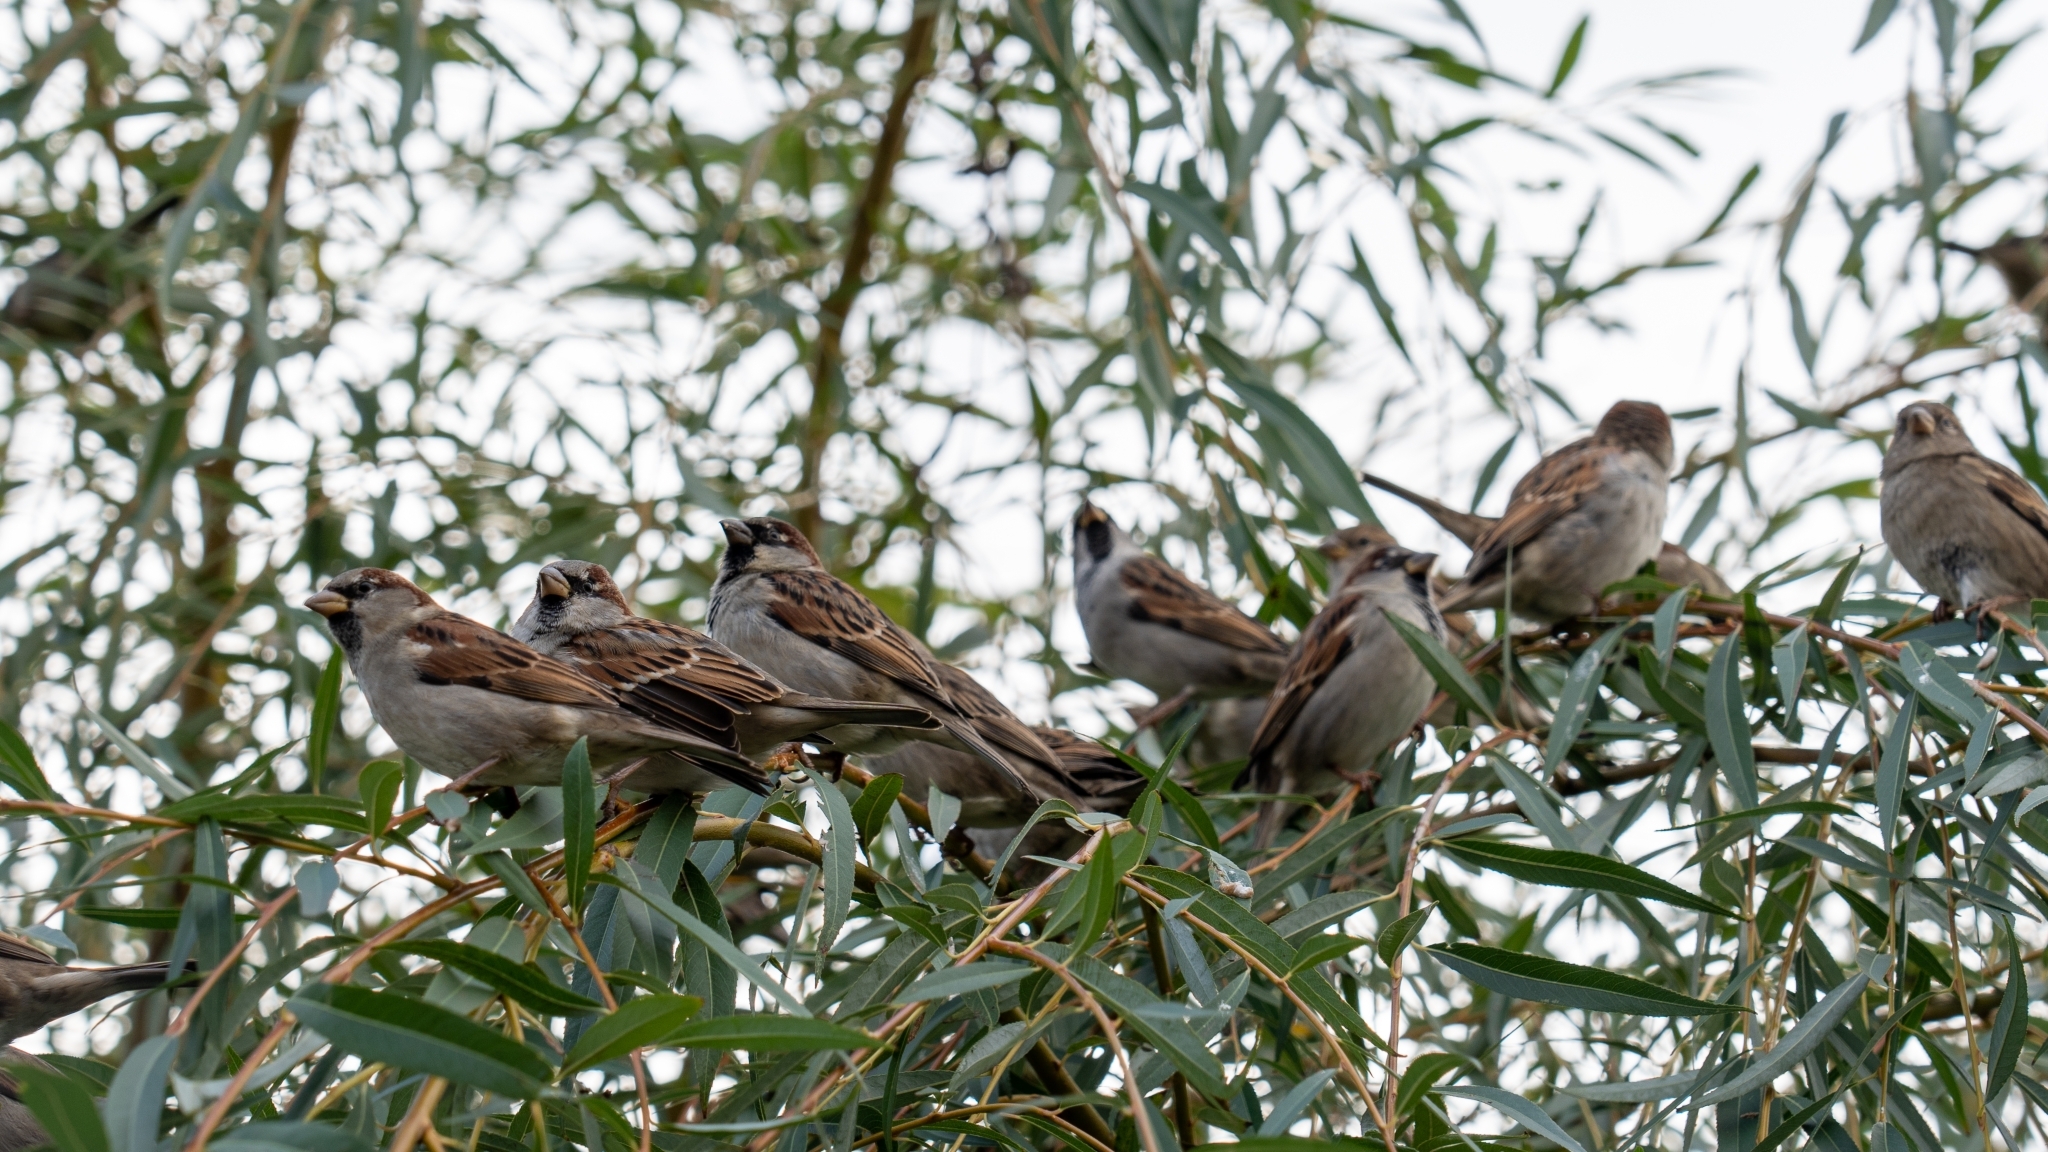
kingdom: Animalia
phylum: Chordata
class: Aves
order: Passeriformes
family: Passeridae
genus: Passer
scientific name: Passer domesticus
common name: House sparrow
